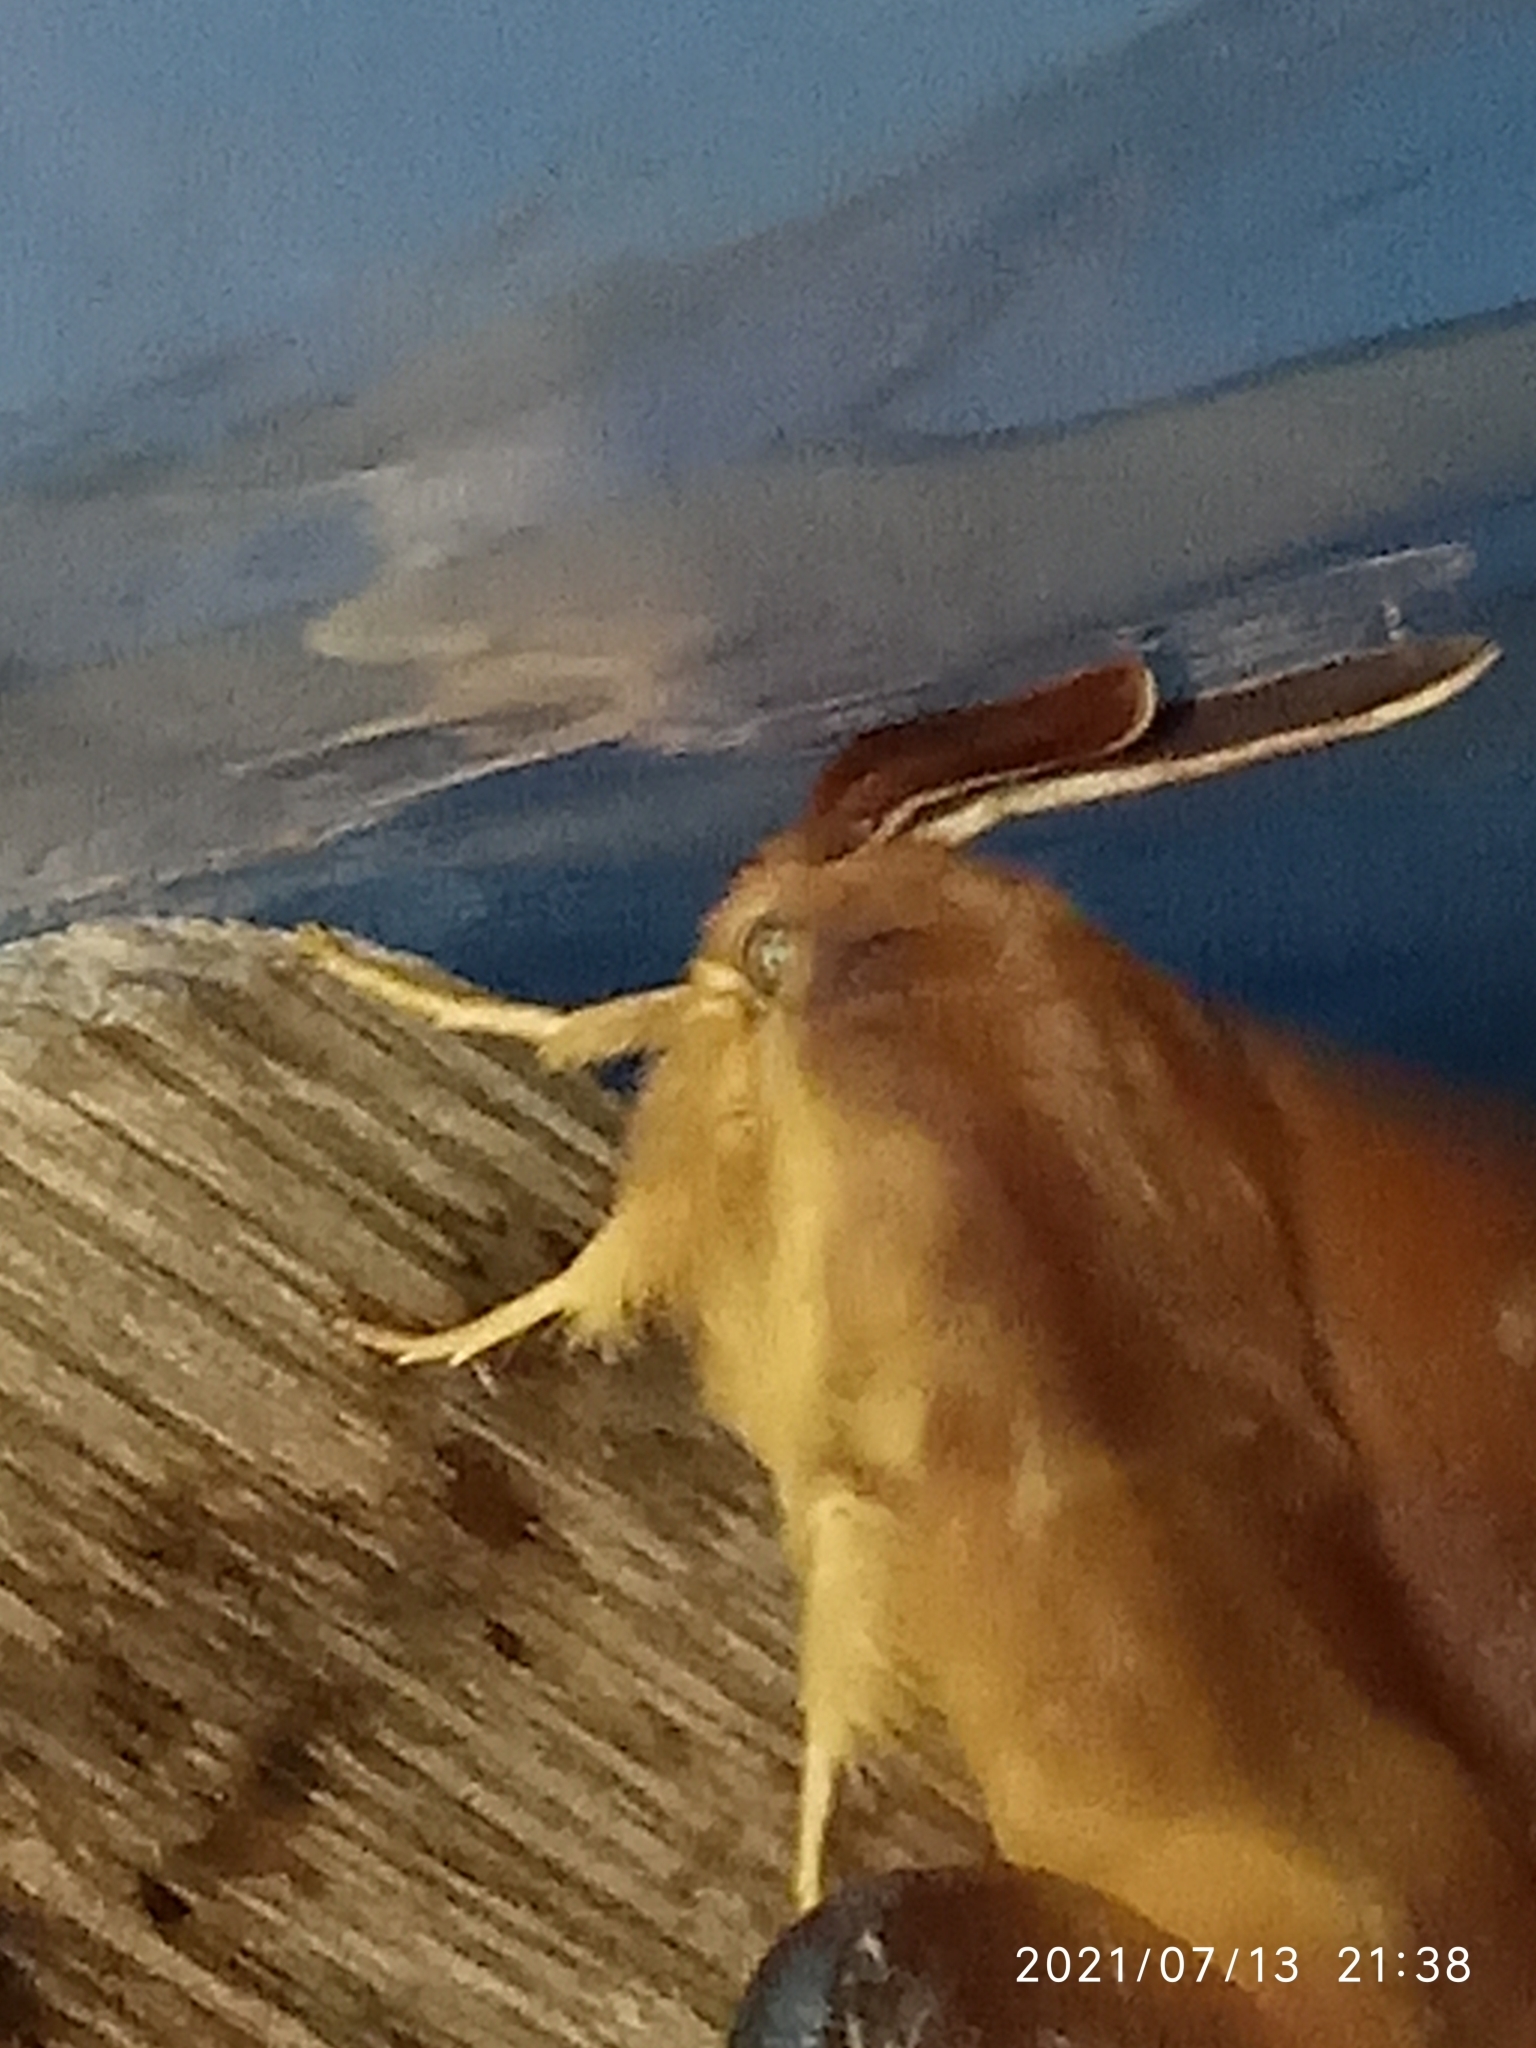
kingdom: Animalia
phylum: Arthropoda
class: Insecta
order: Lepidoptera
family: Lasiocampidae
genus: Lasiocampa
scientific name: Lasiocampa quercus
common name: Oak eggar
